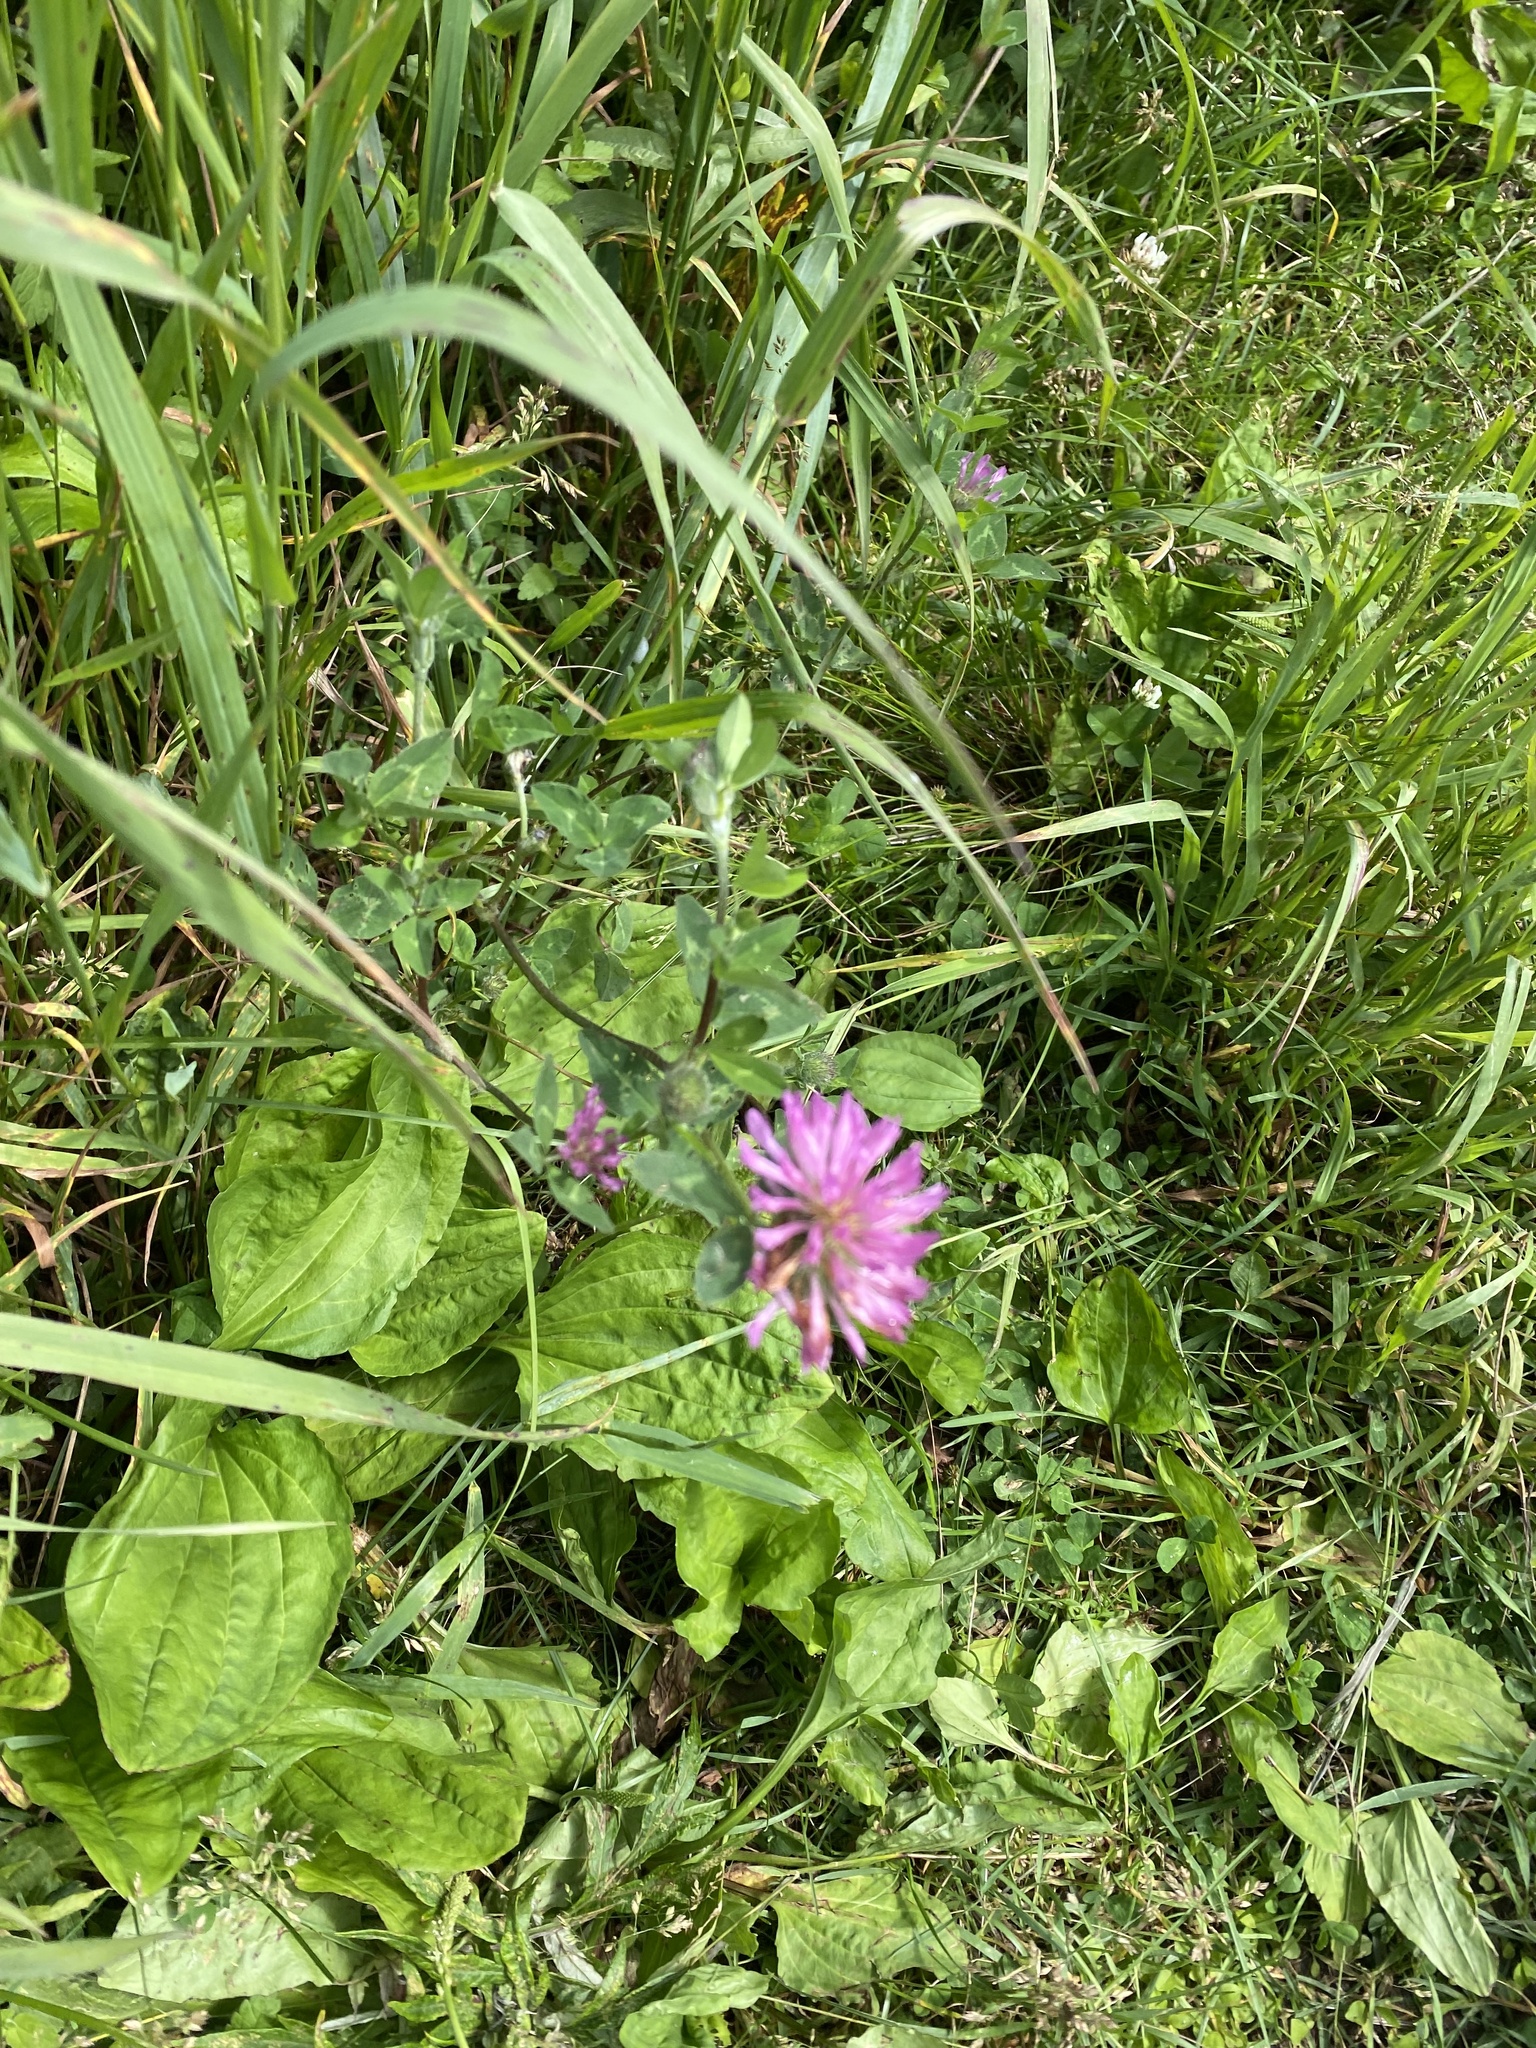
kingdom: Plantae
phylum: Tracheophyta
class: Magnoliopsida
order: Fabales
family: Fabaceae
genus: Trifolium
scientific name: Trifolium pratense
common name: Red clover
